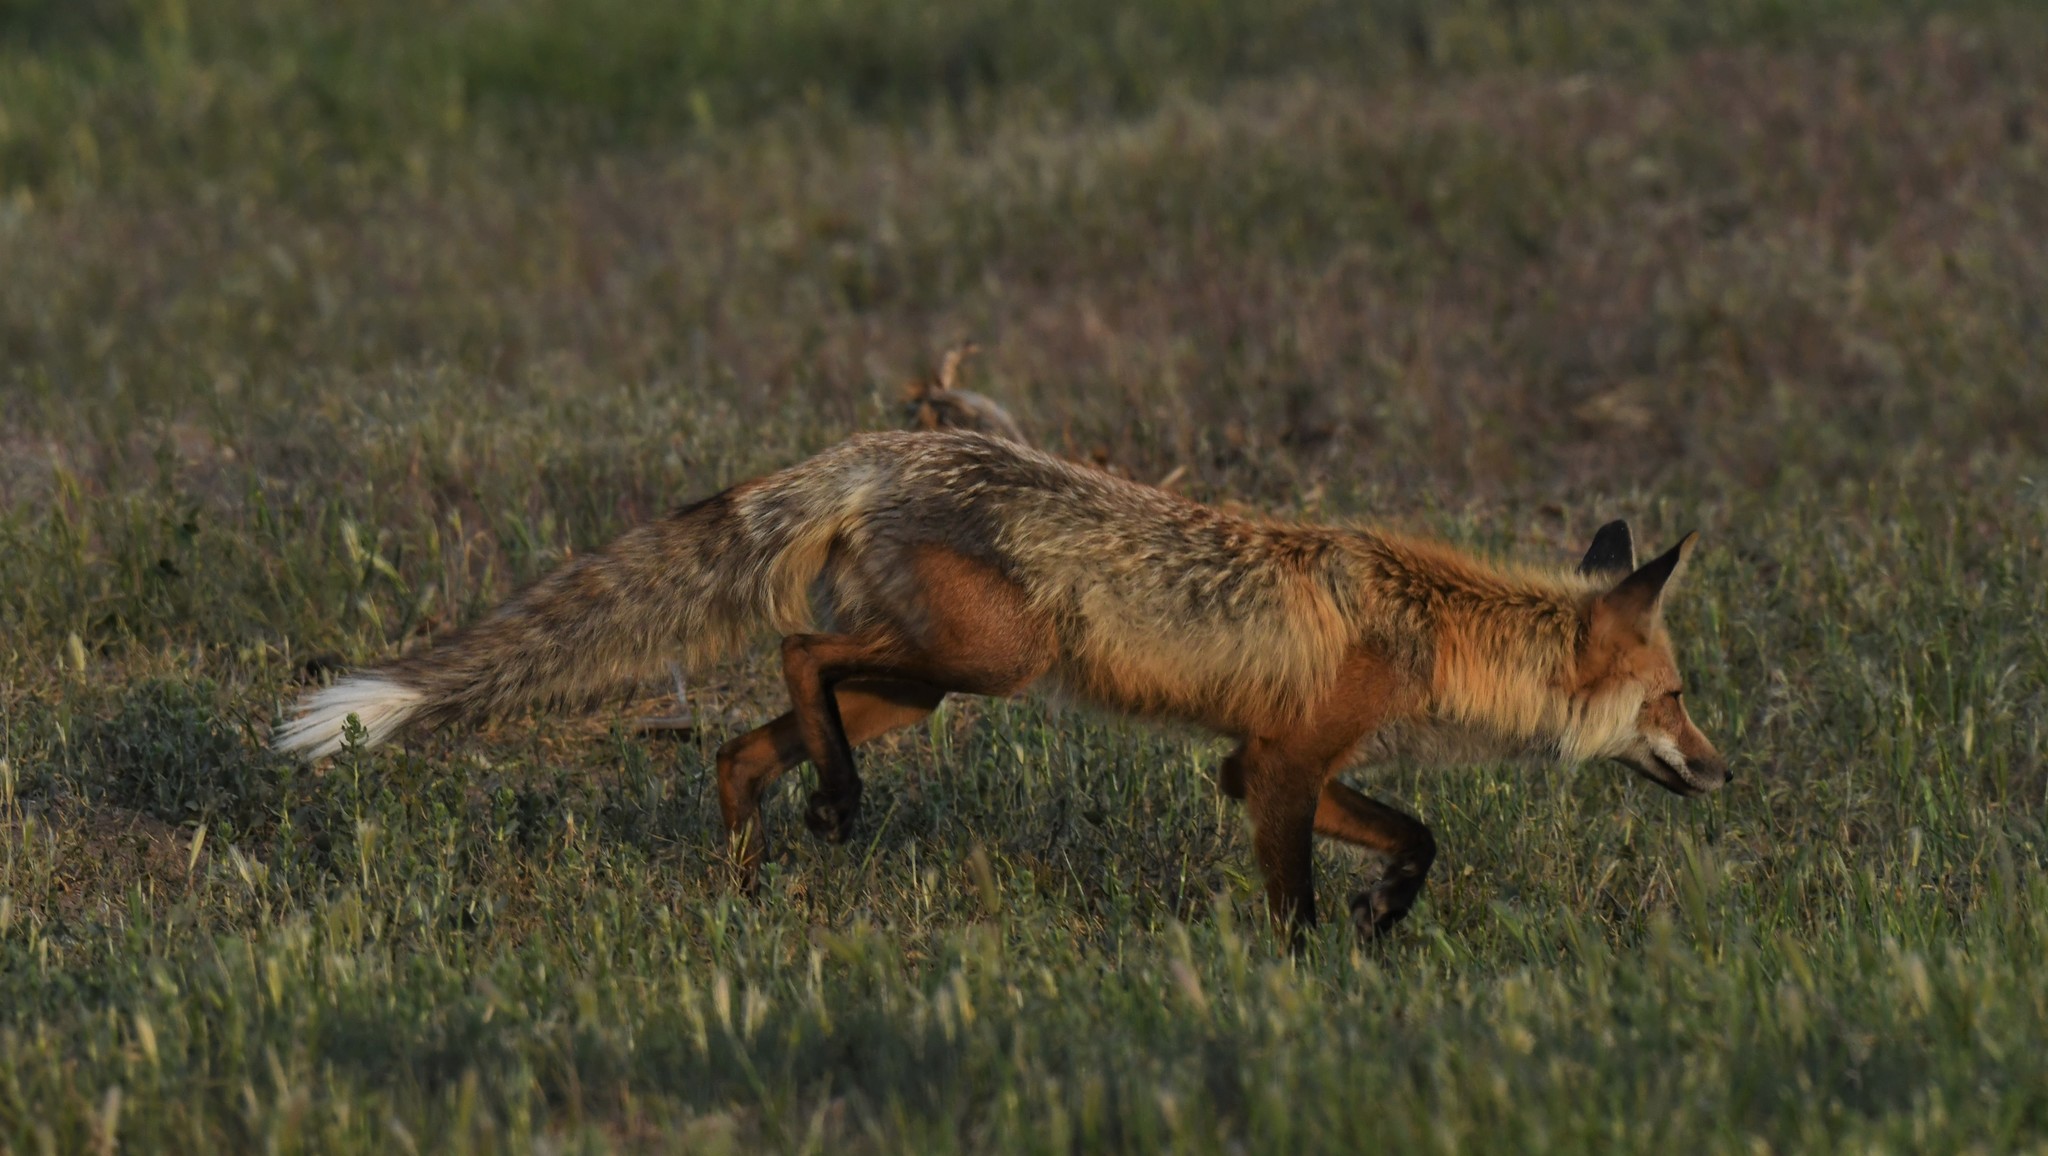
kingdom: Animalia
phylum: Chordata
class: Mammalia
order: Carnivora
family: Canidae
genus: Vulpes
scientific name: Vulpes vulpes
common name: Red fox
